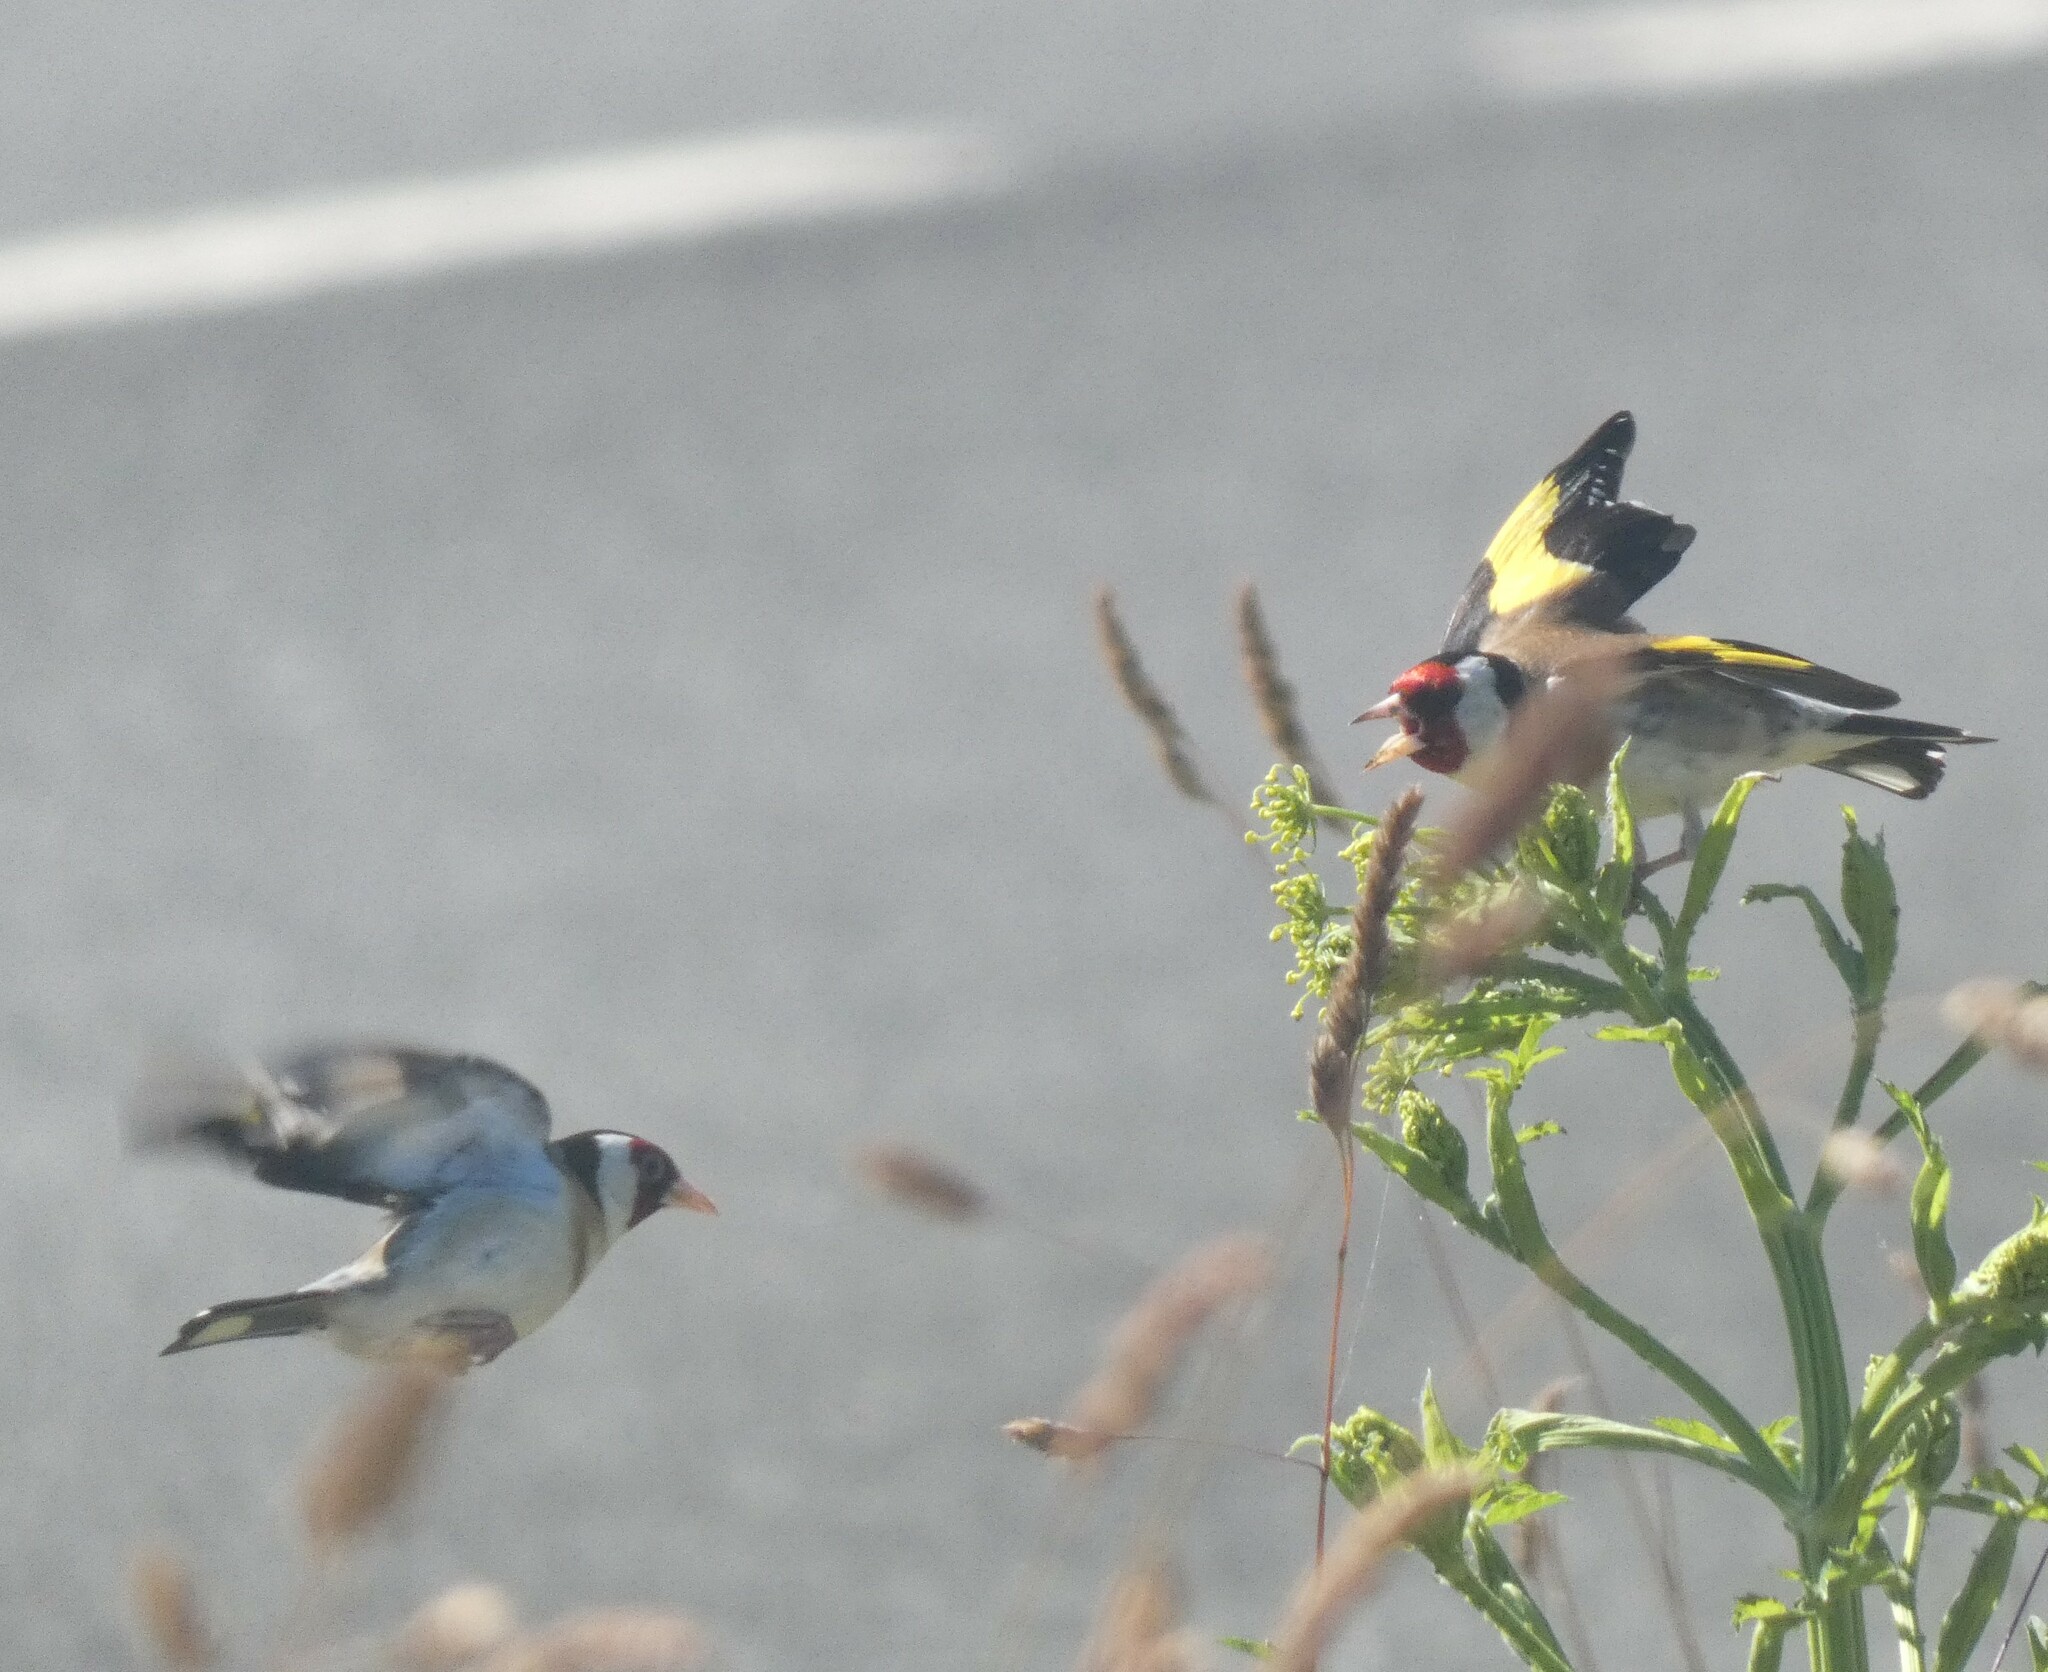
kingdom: Animalia
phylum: Chordata
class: Aves
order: Passeriformes
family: Fringillidae
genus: Carduelis
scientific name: Carduelis carduelis
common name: European goldfinch
